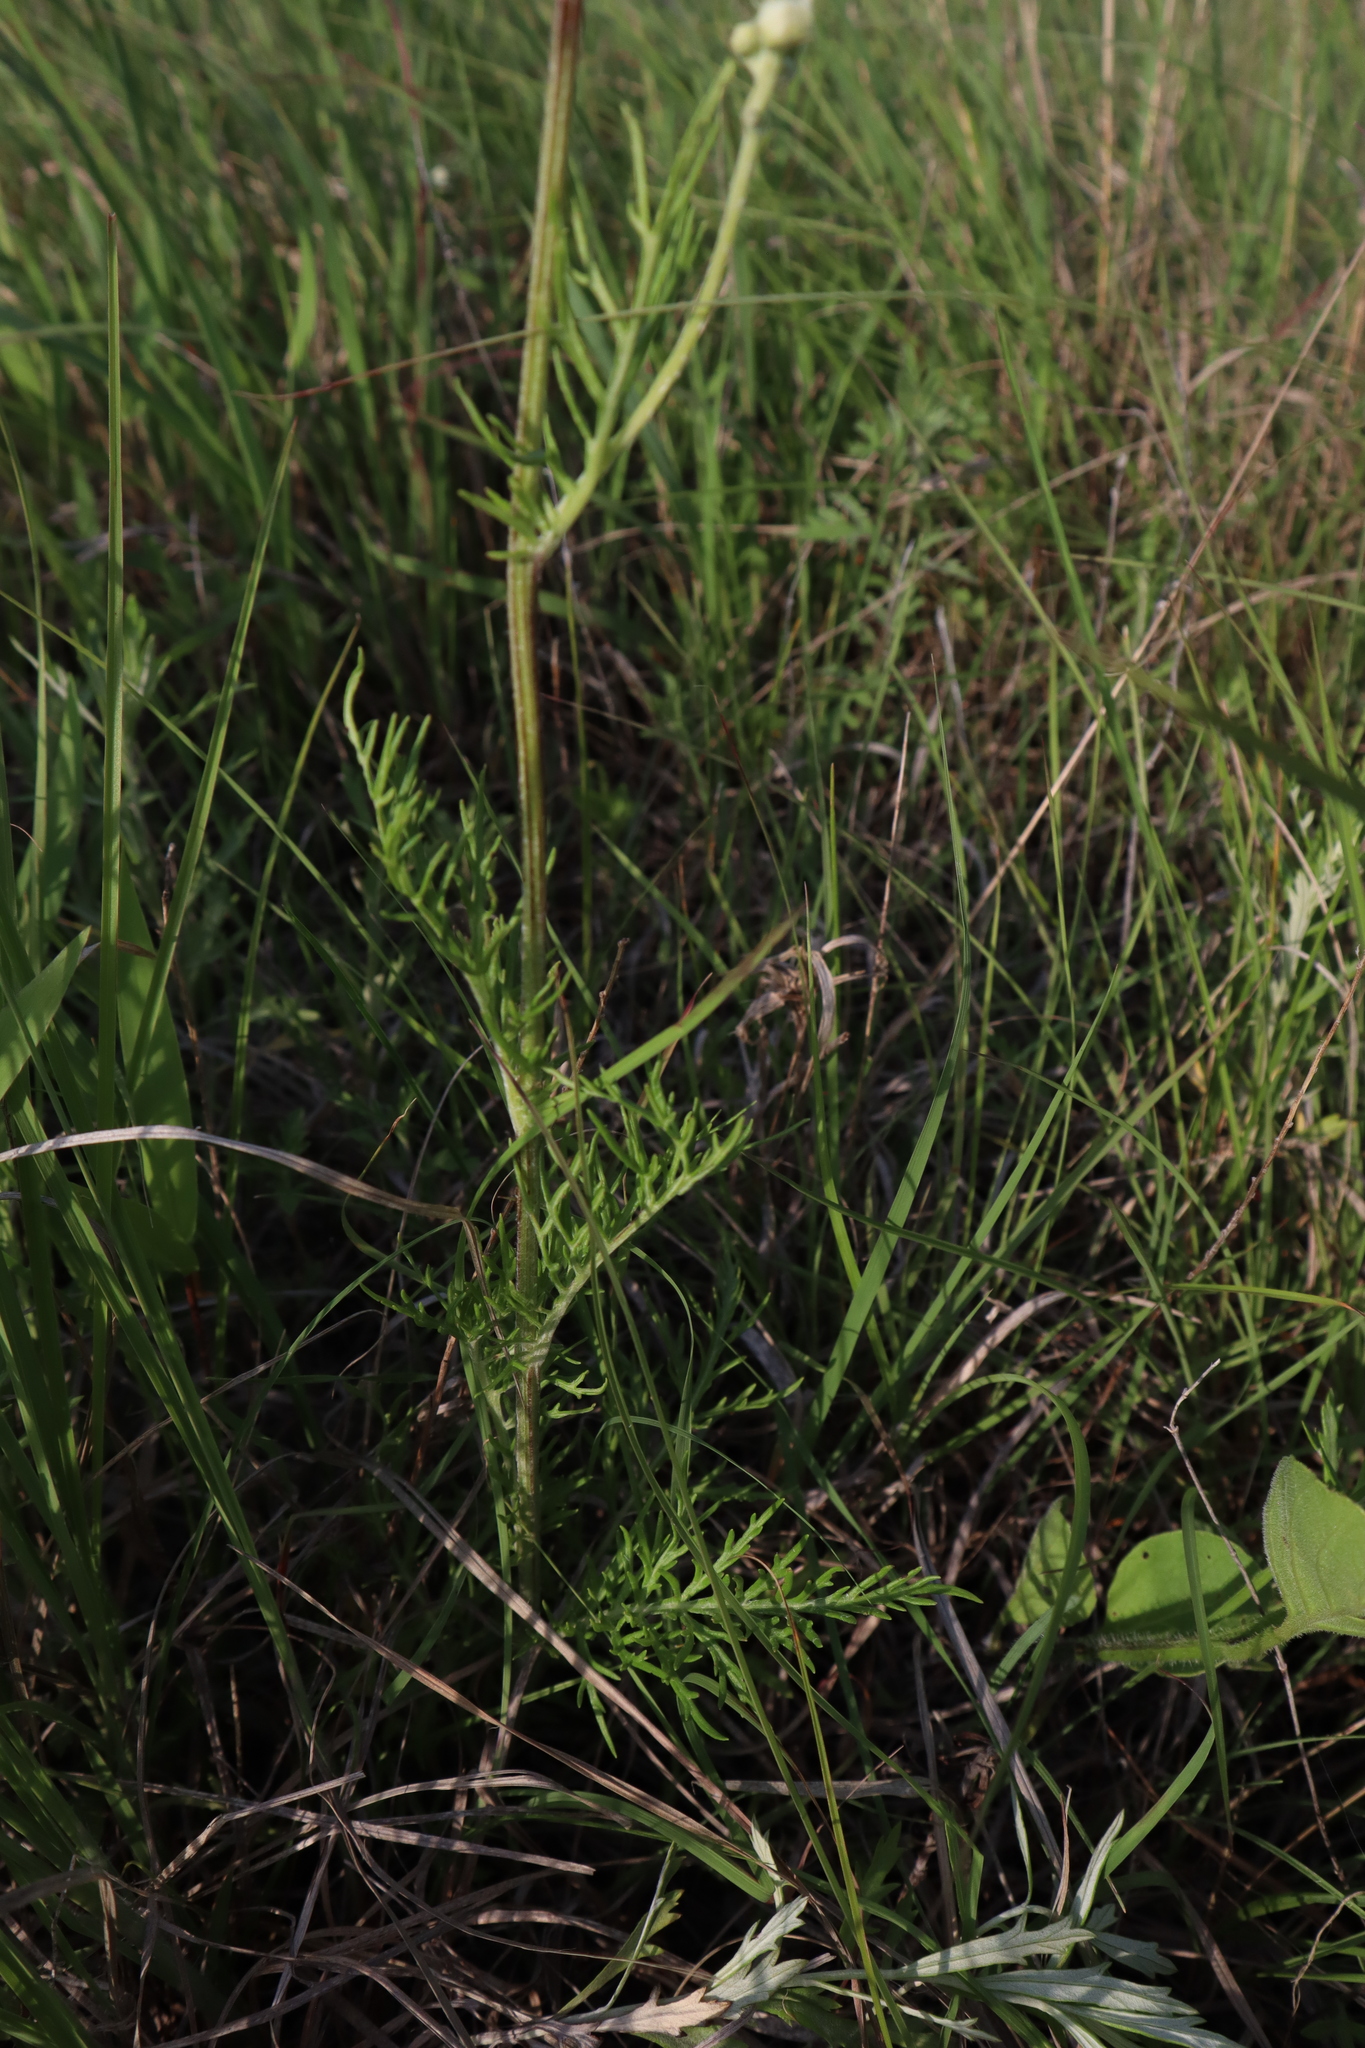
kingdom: Plantae
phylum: Tracheophyta
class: Magnoliopsida
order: Asterales
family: Asteraceae
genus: Hymenopappus
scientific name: Hymenopappus scabiosaeus
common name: Carolina woollywhite
